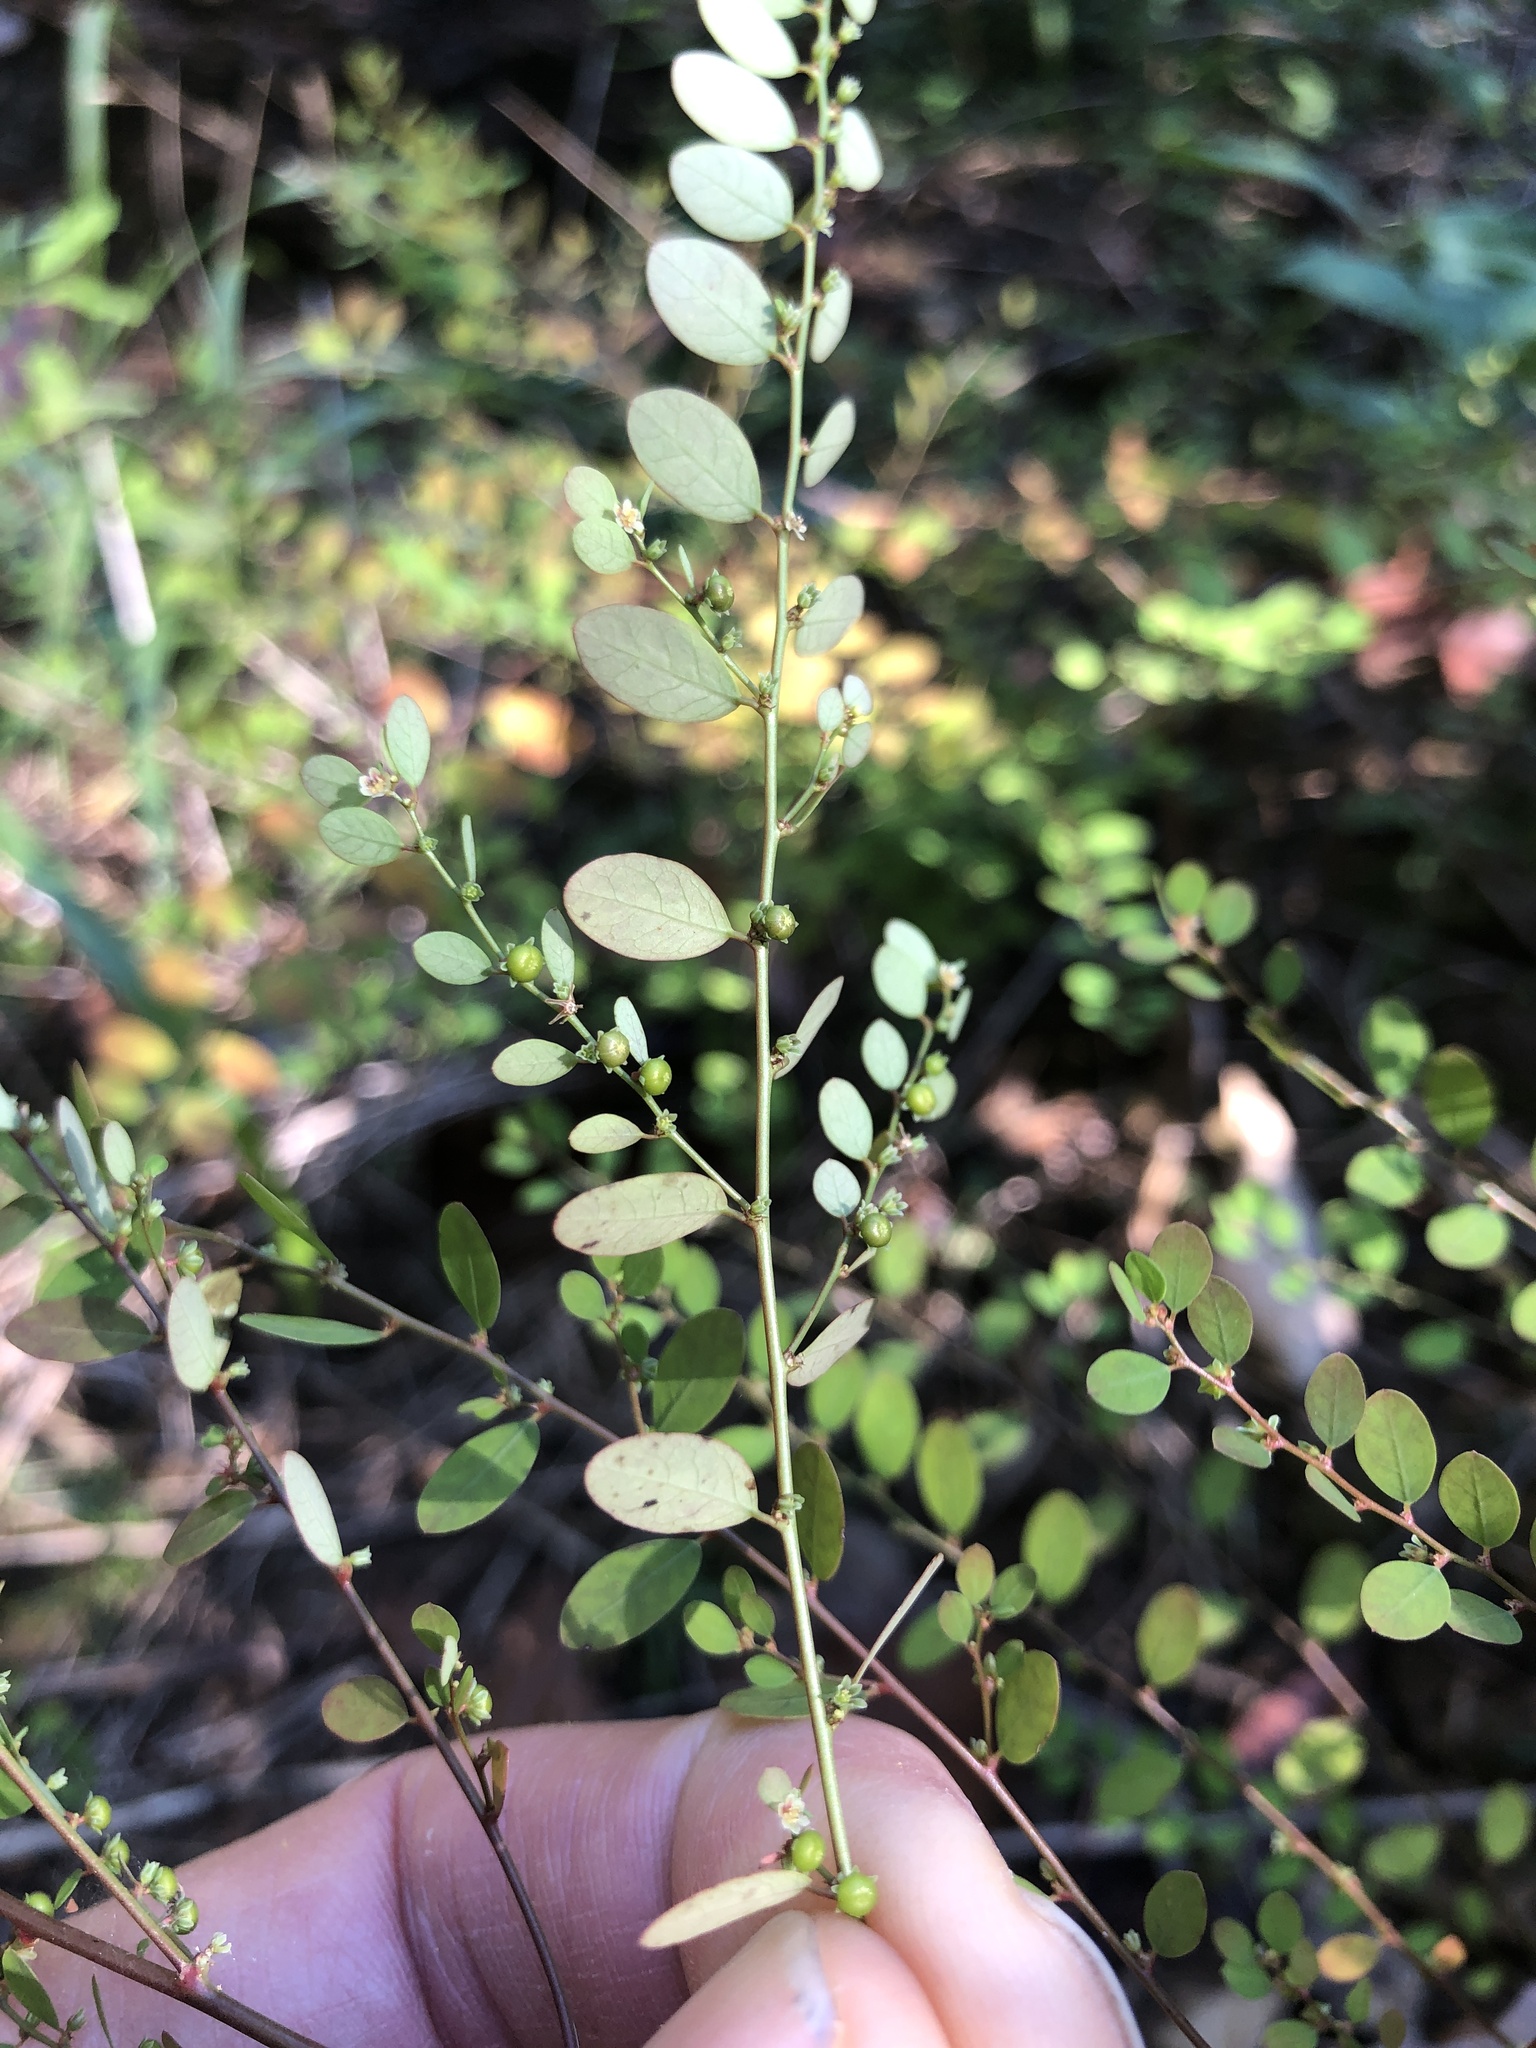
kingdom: Plantae
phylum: Tracheophyta
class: Magnoliopsida
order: Malpighiales
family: Phyllanthaceae
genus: Phyllanthus
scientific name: Phyllanthus caroliniensis
